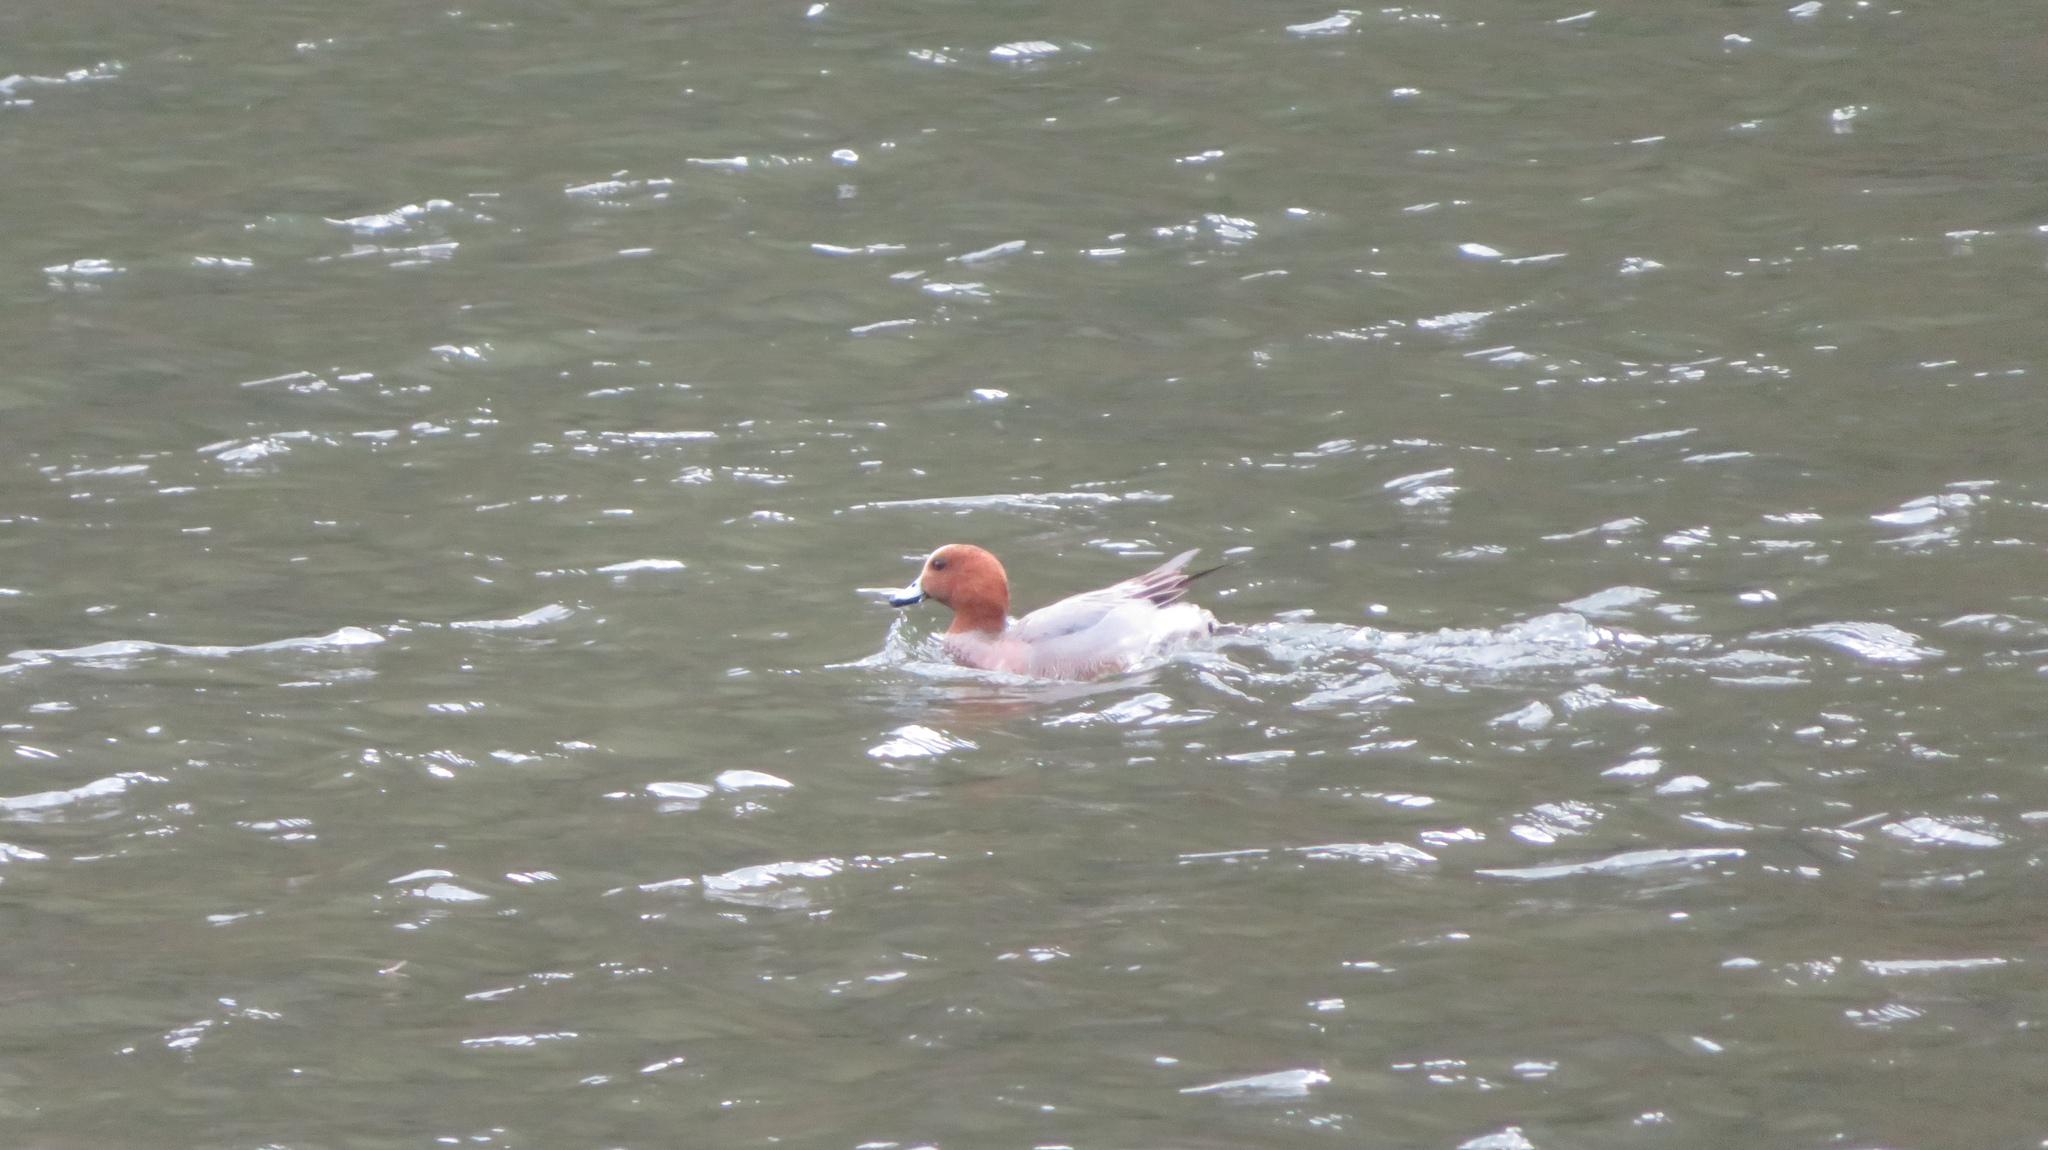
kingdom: Animalia
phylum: Chordata
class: Aves
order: Anseriformes
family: Anatidae
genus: Mareca
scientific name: Mareca penelope
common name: Eurasian wigeon
